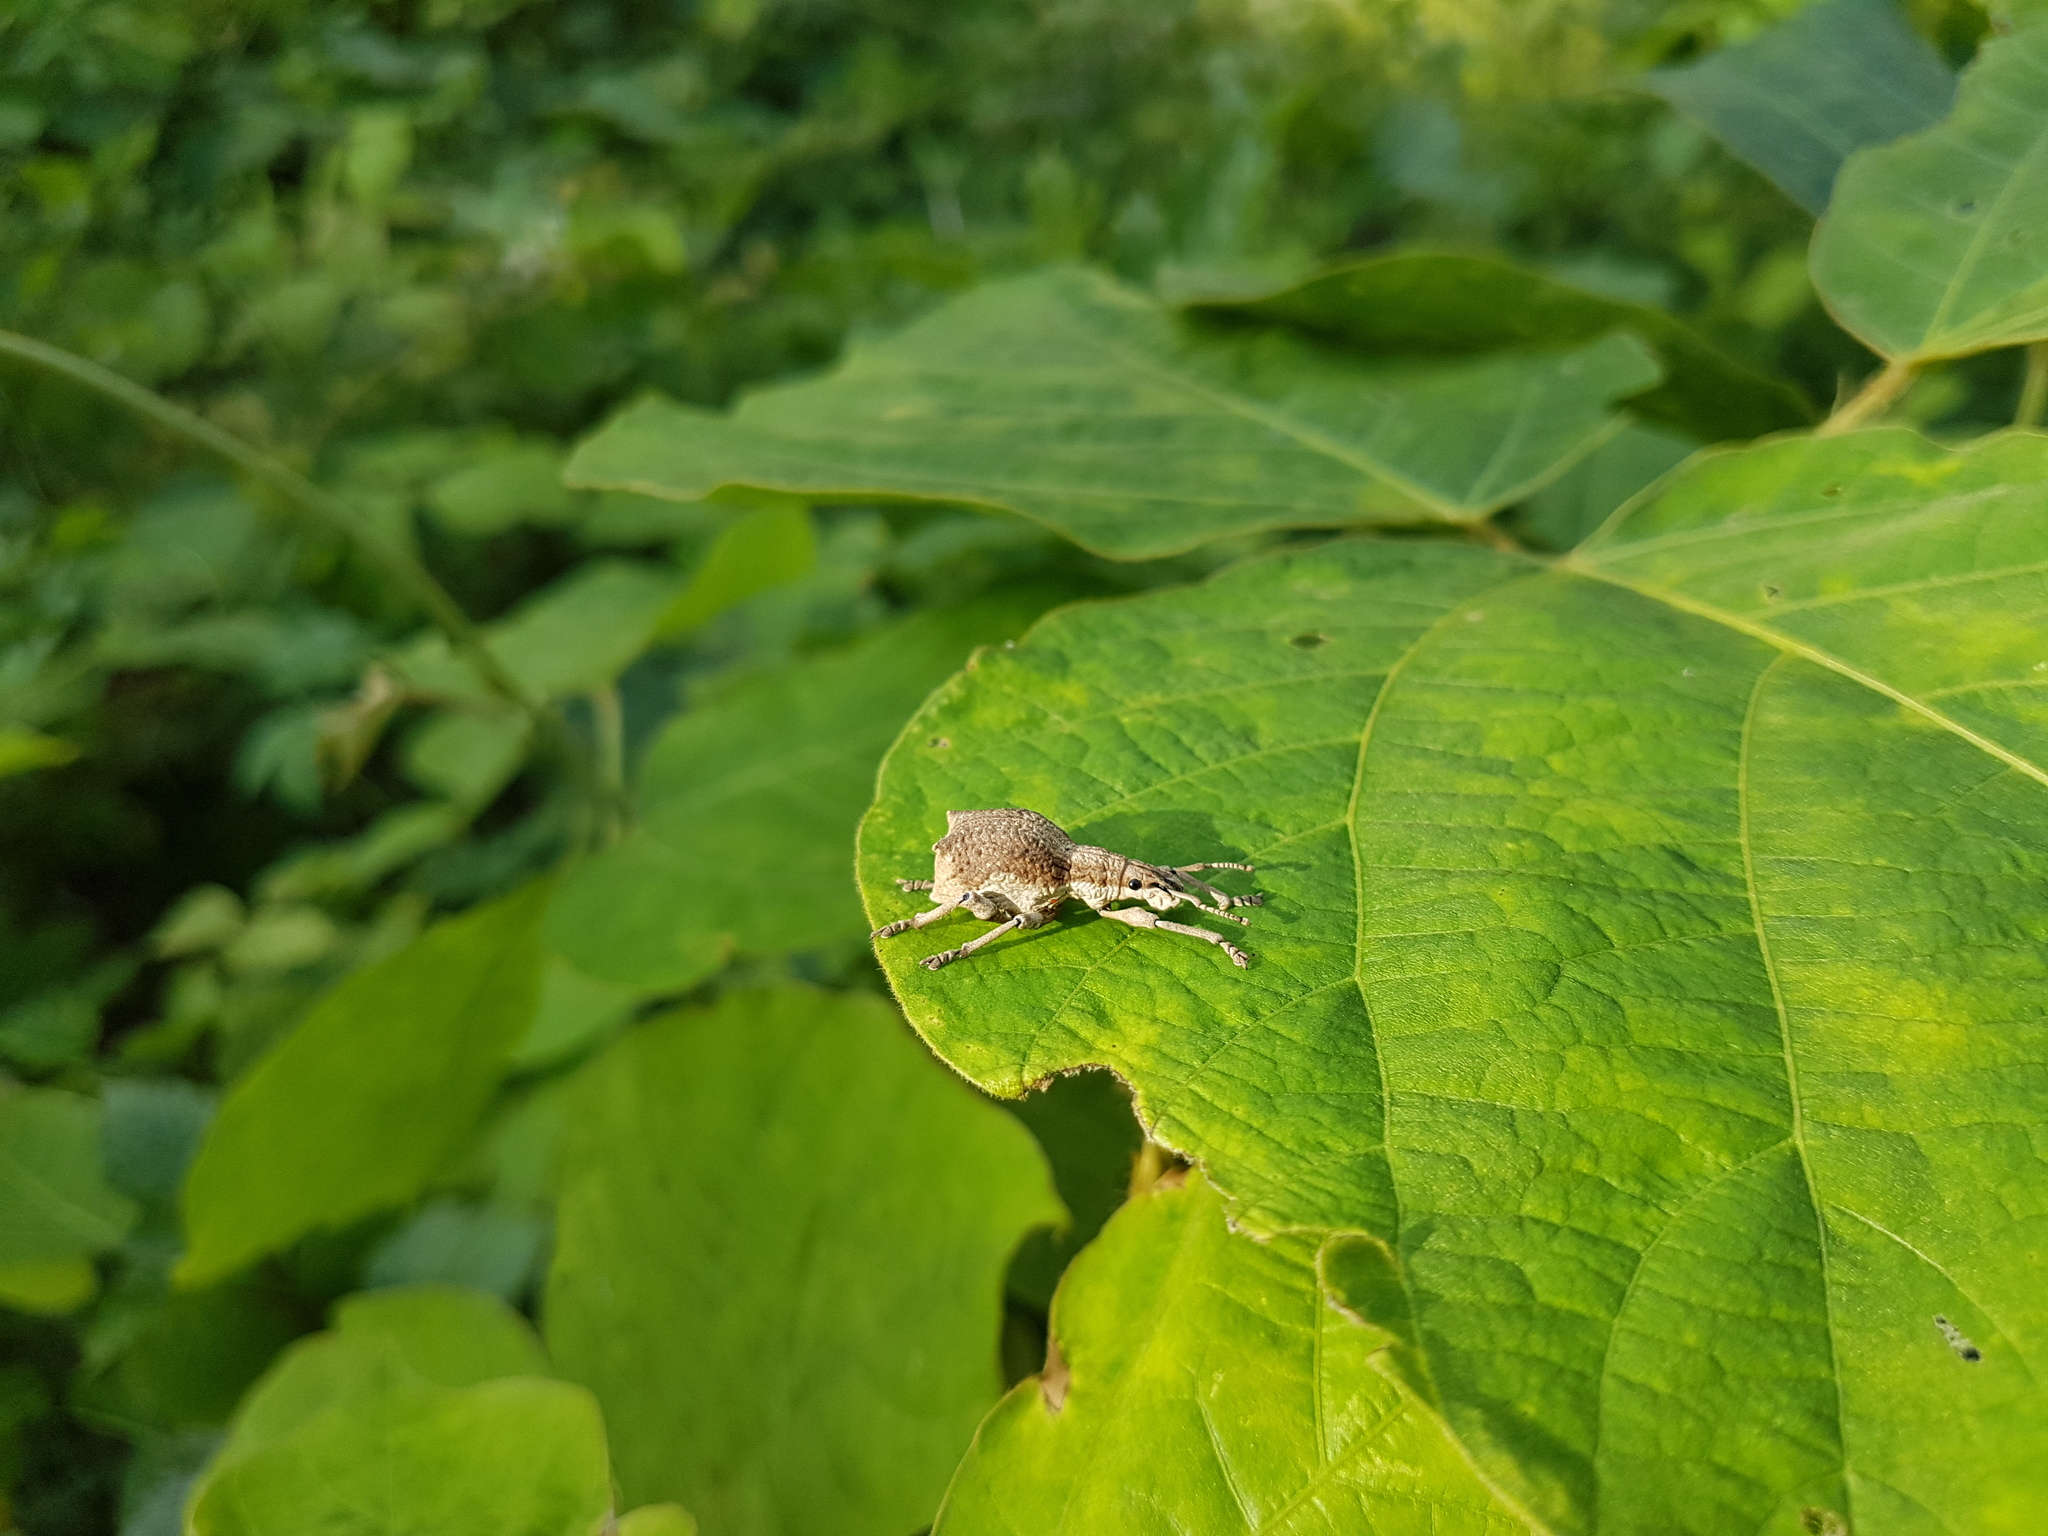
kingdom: Animalia
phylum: Arthropoda
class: Insecta
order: Coleoptera
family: Curculionidae
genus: Episomus
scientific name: Episomus turritus
